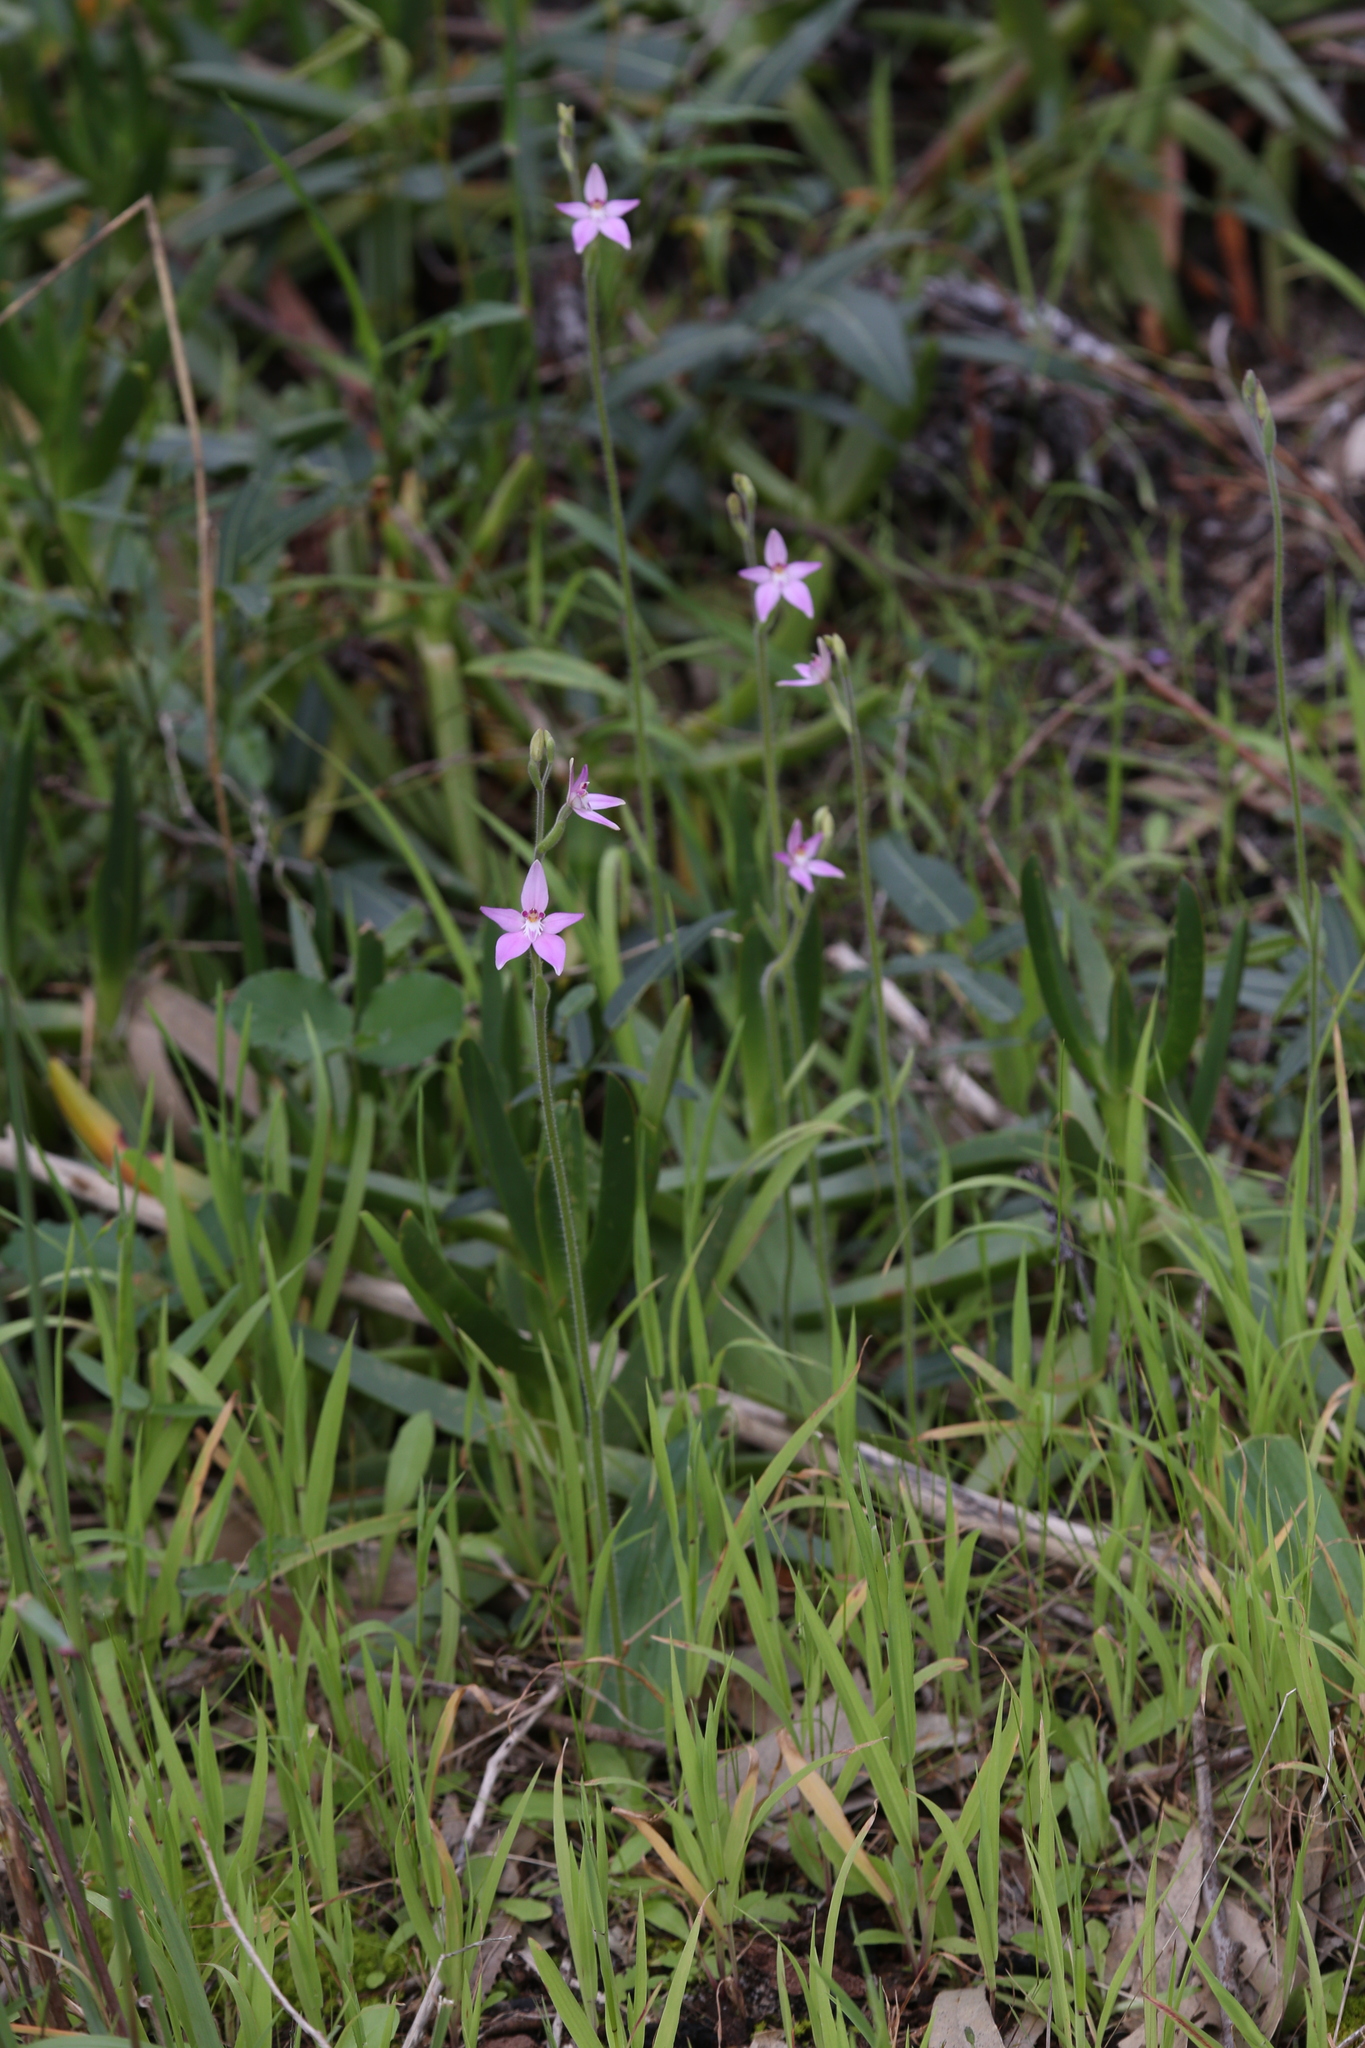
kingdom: Plantae
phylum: Tracheophyta
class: Liliopsida
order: Asparagales
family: Orchidaceae
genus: Caladenia
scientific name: Caladenia latifolia
